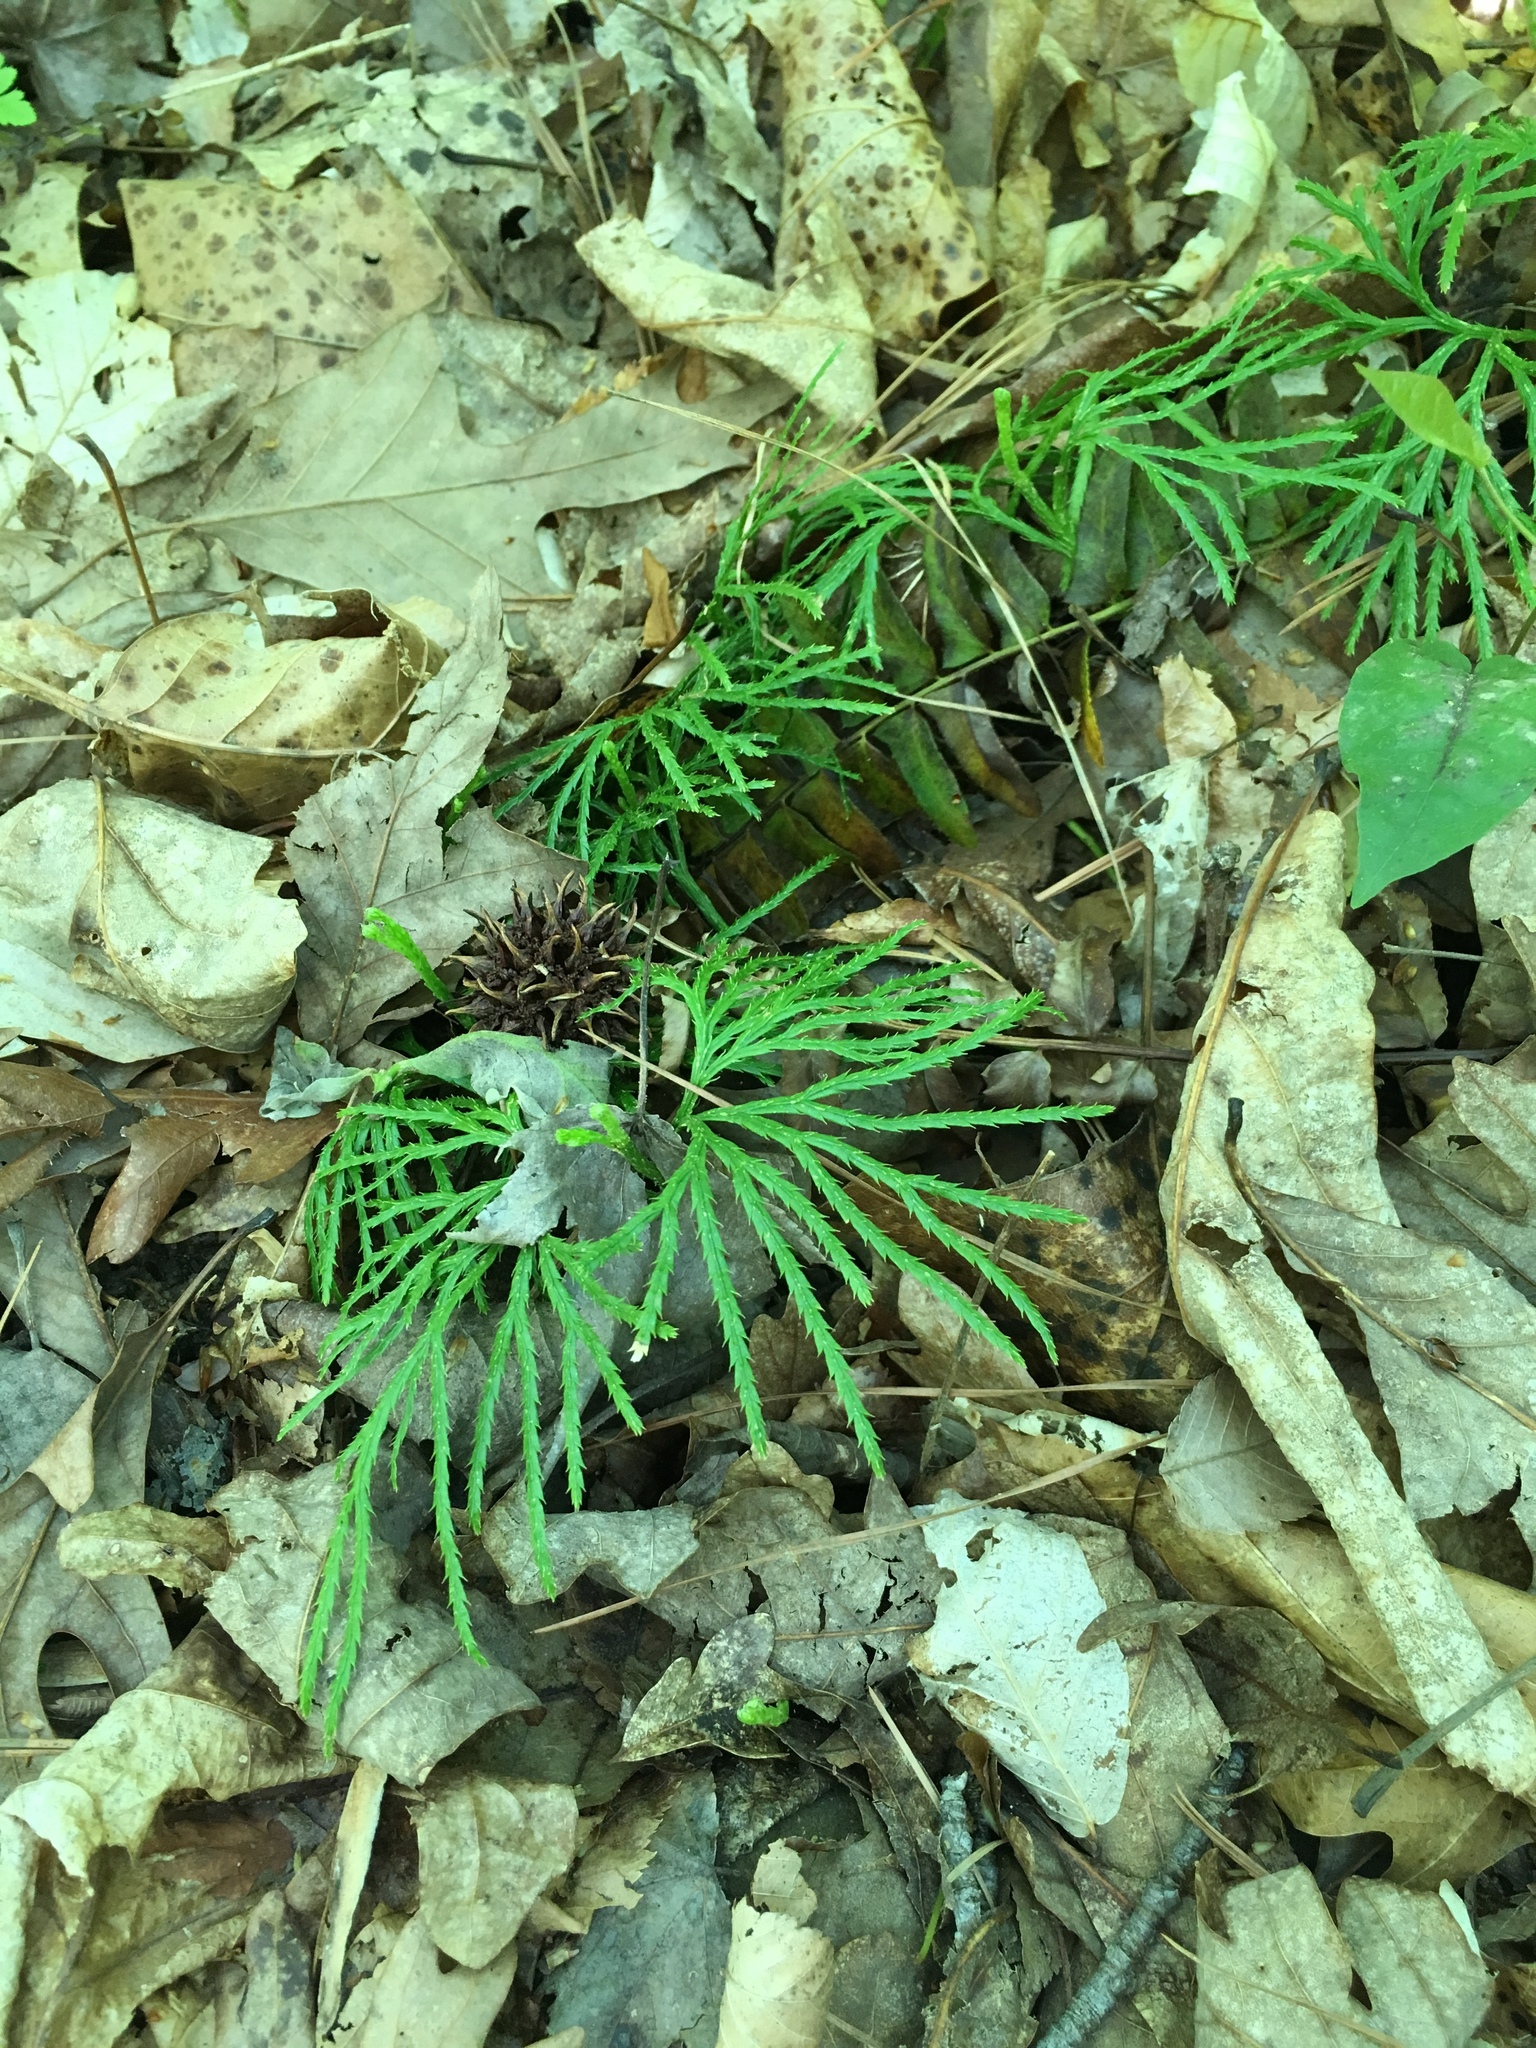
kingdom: Plantae
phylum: Tracheophyta
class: Lycopodiopsida
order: Lycopodiales
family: Lycopodiaceae
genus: Diphasiastrum
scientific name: Diphasiastrum digitatum
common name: Southern running-pine
